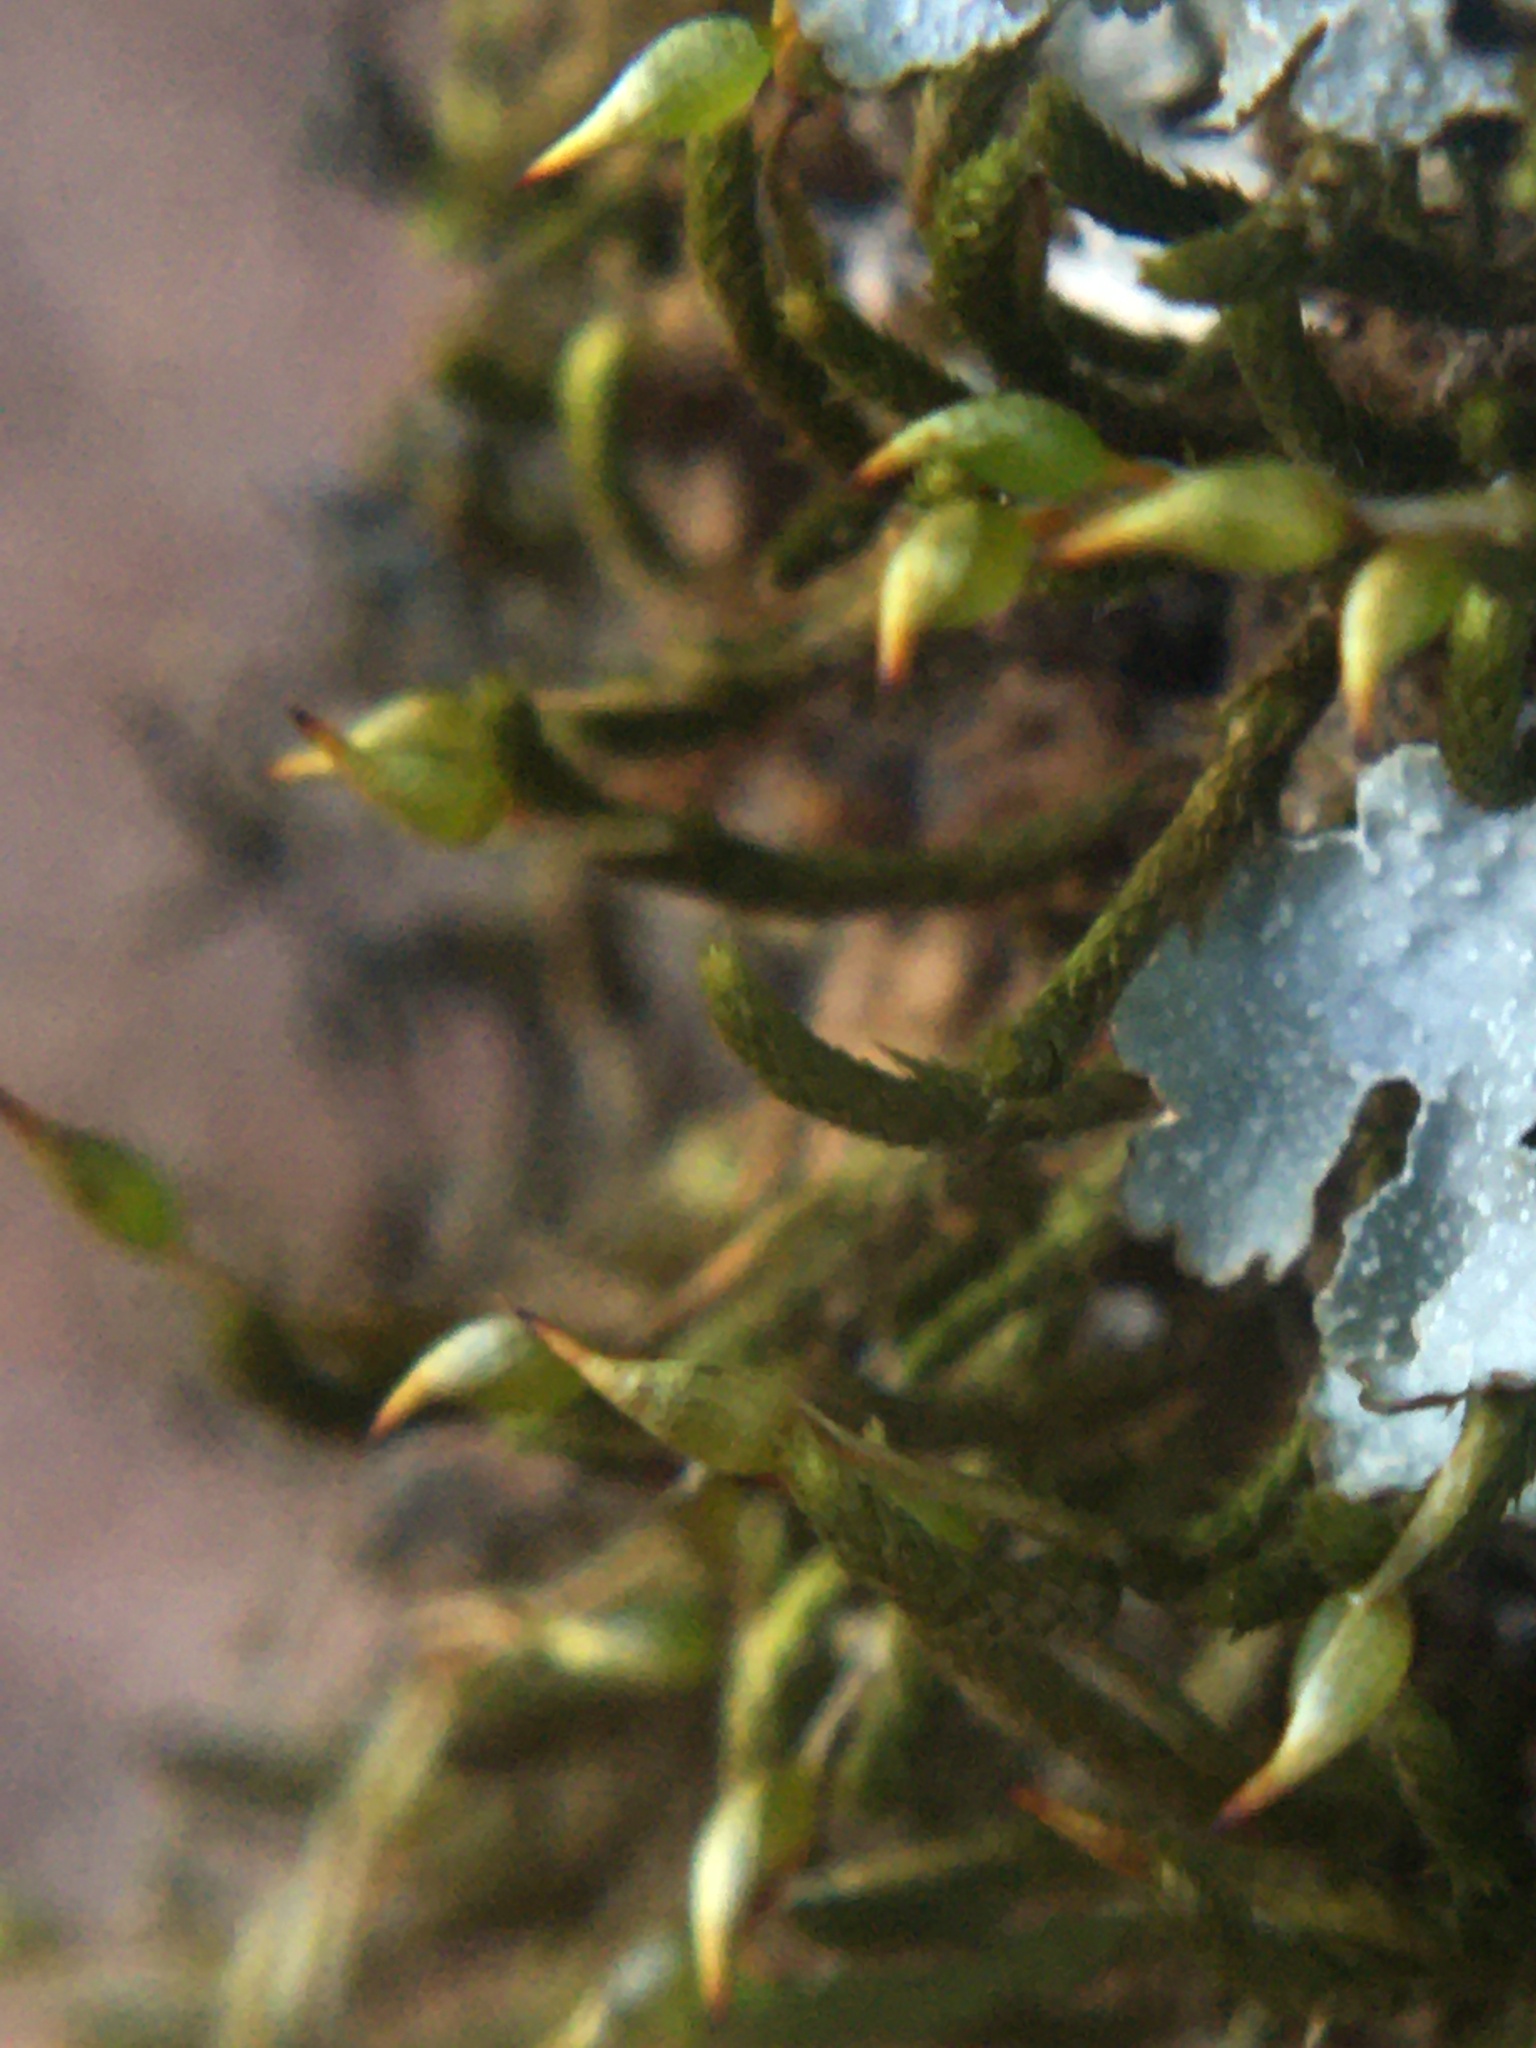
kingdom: Plantae
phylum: Bryophyta
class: Bryopsida
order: Hypnales
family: Leucodontaceae
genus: Leucodon
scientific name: Leucodon julaceus
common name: Smooth hook moss
